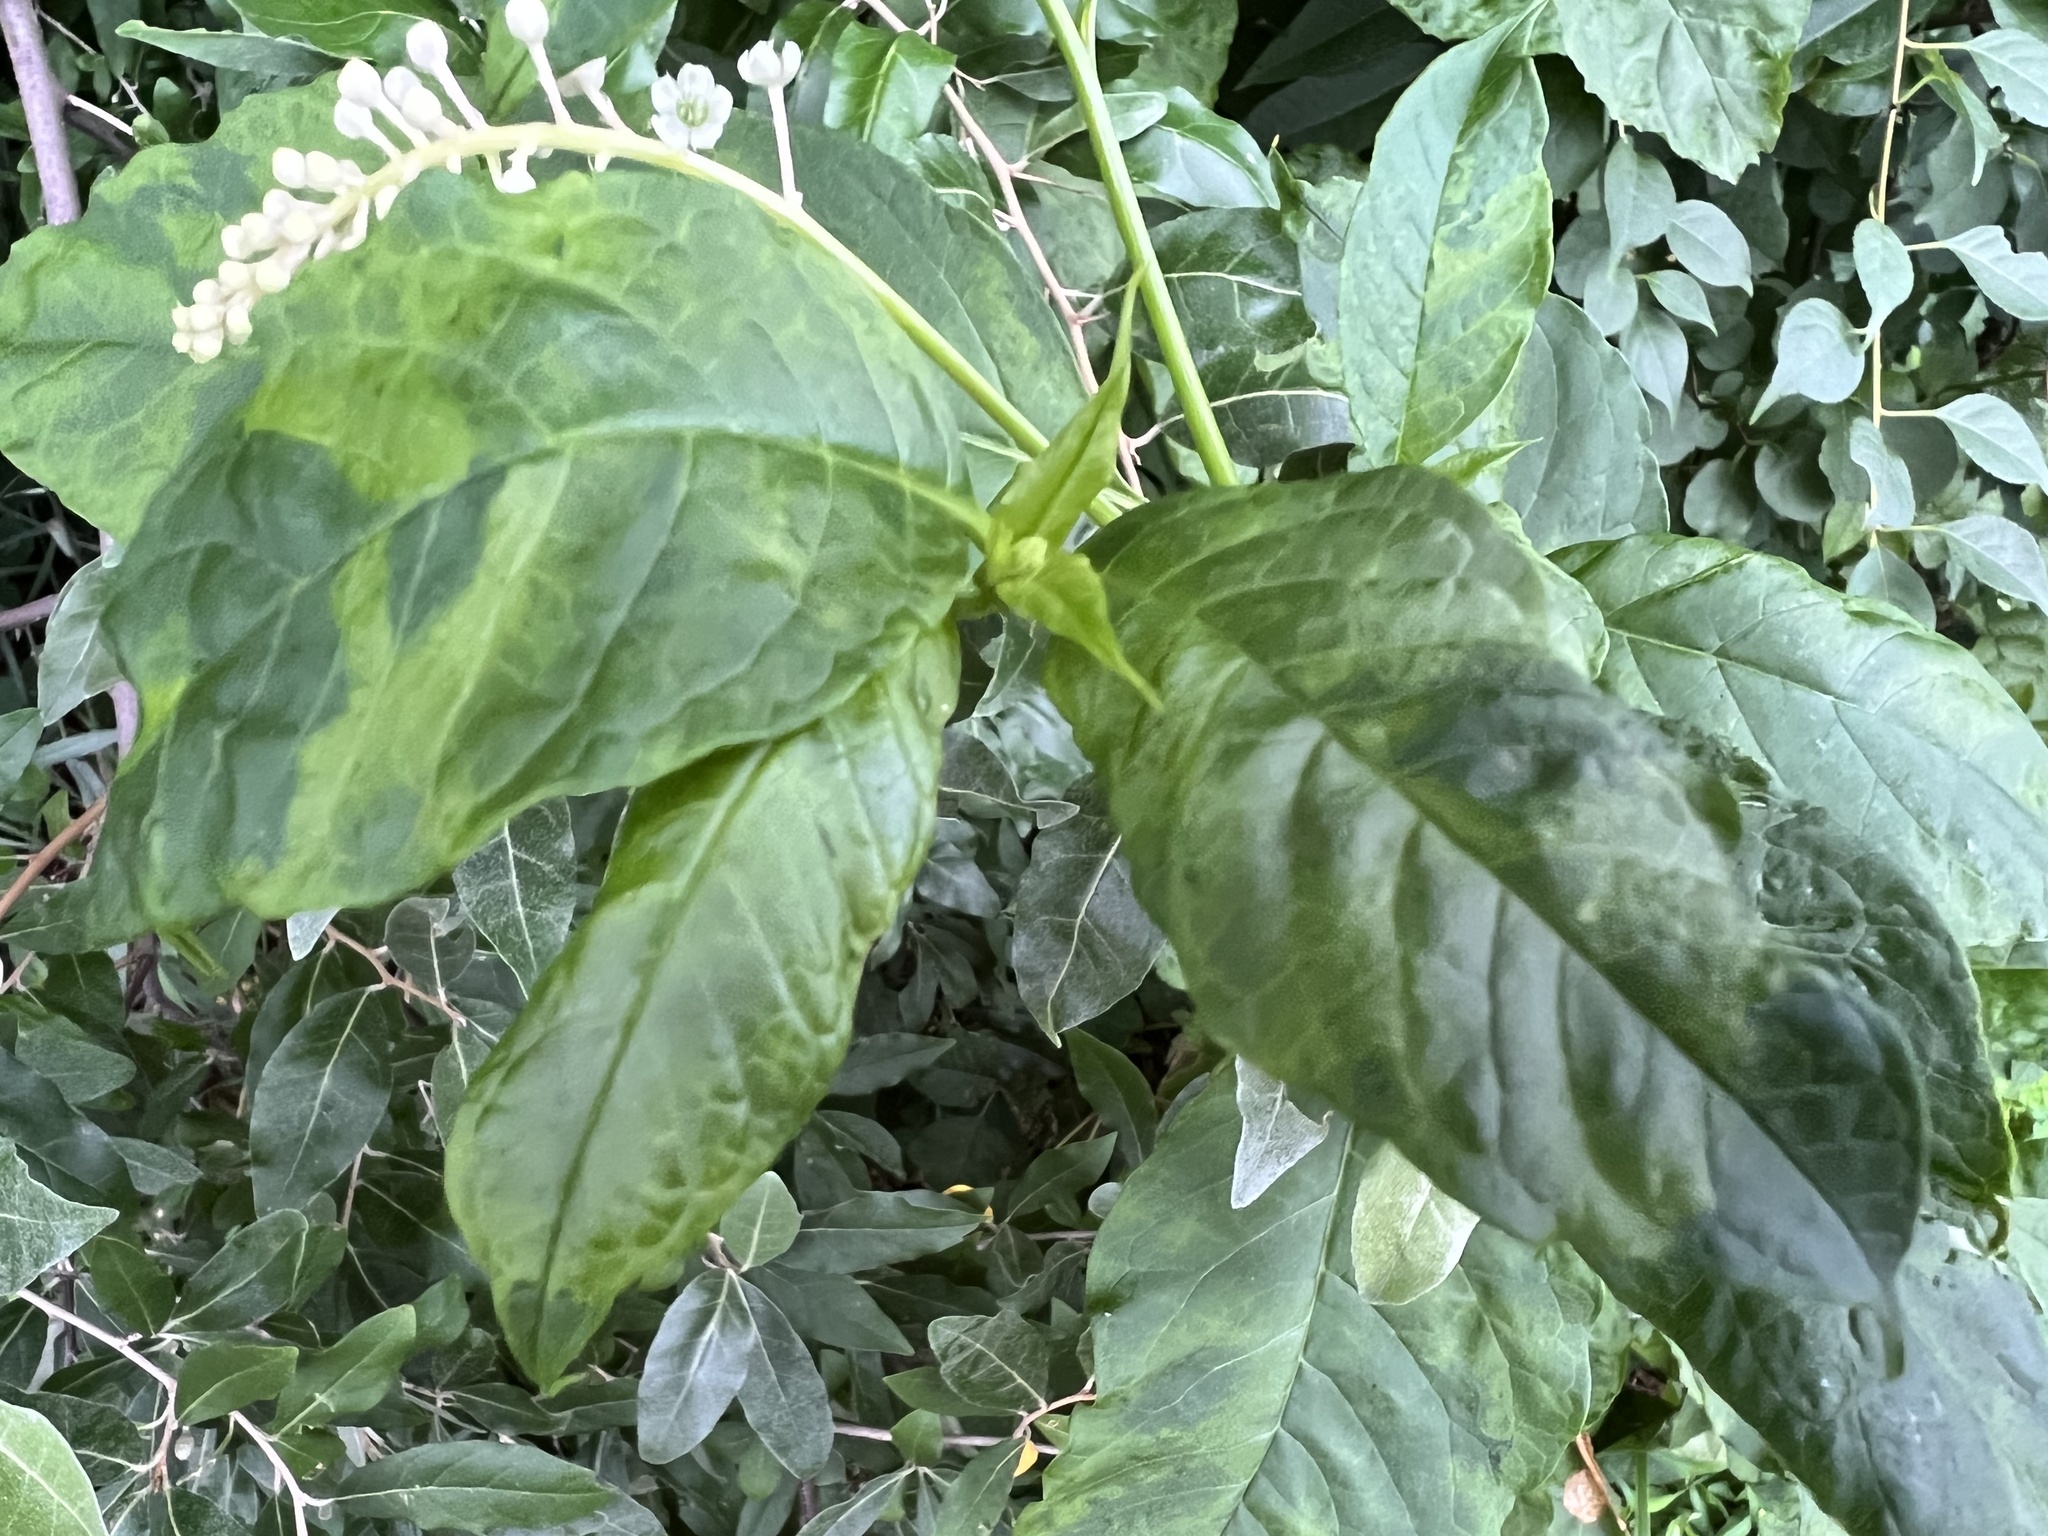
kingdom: Plantae
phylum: Tracheophyta
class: Magnoliopsida
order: Caryophyllales
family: Phytolaccaceae
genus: Phytolacca
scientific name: Phytolacca americana
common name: American pokeweed
